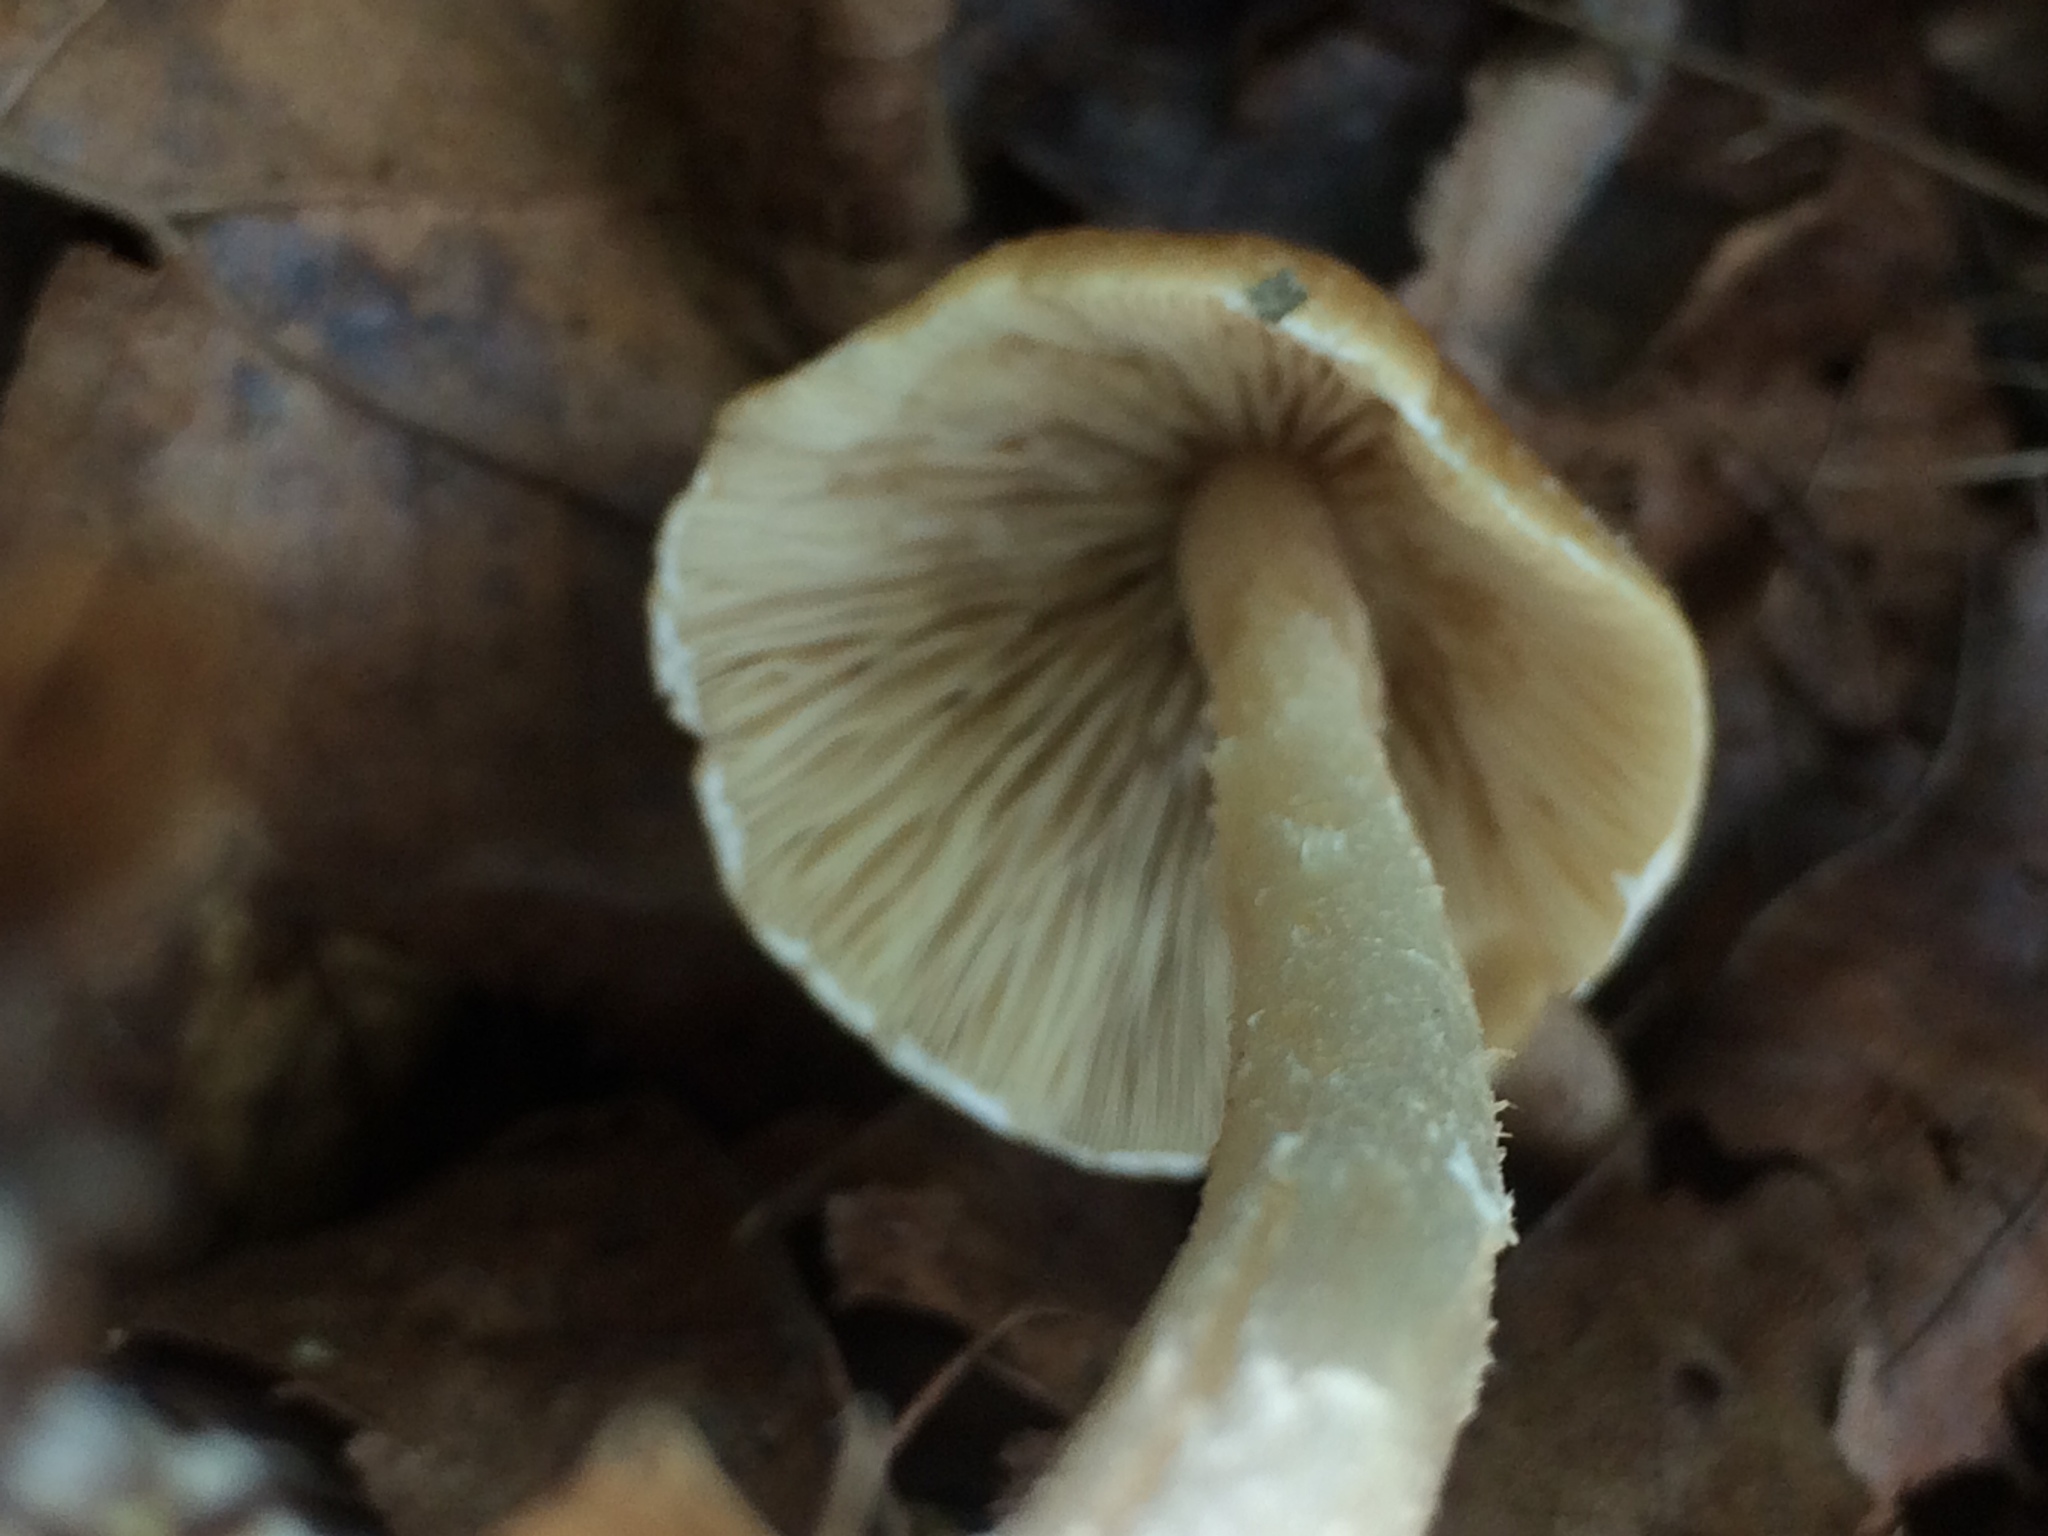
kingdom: Fungi
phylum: Basidiomycota
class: Agaricomycetes
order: Agaricales
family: Psathyrellaceae
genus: Candolleomyces
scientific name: Candolleomyces candolleanus
